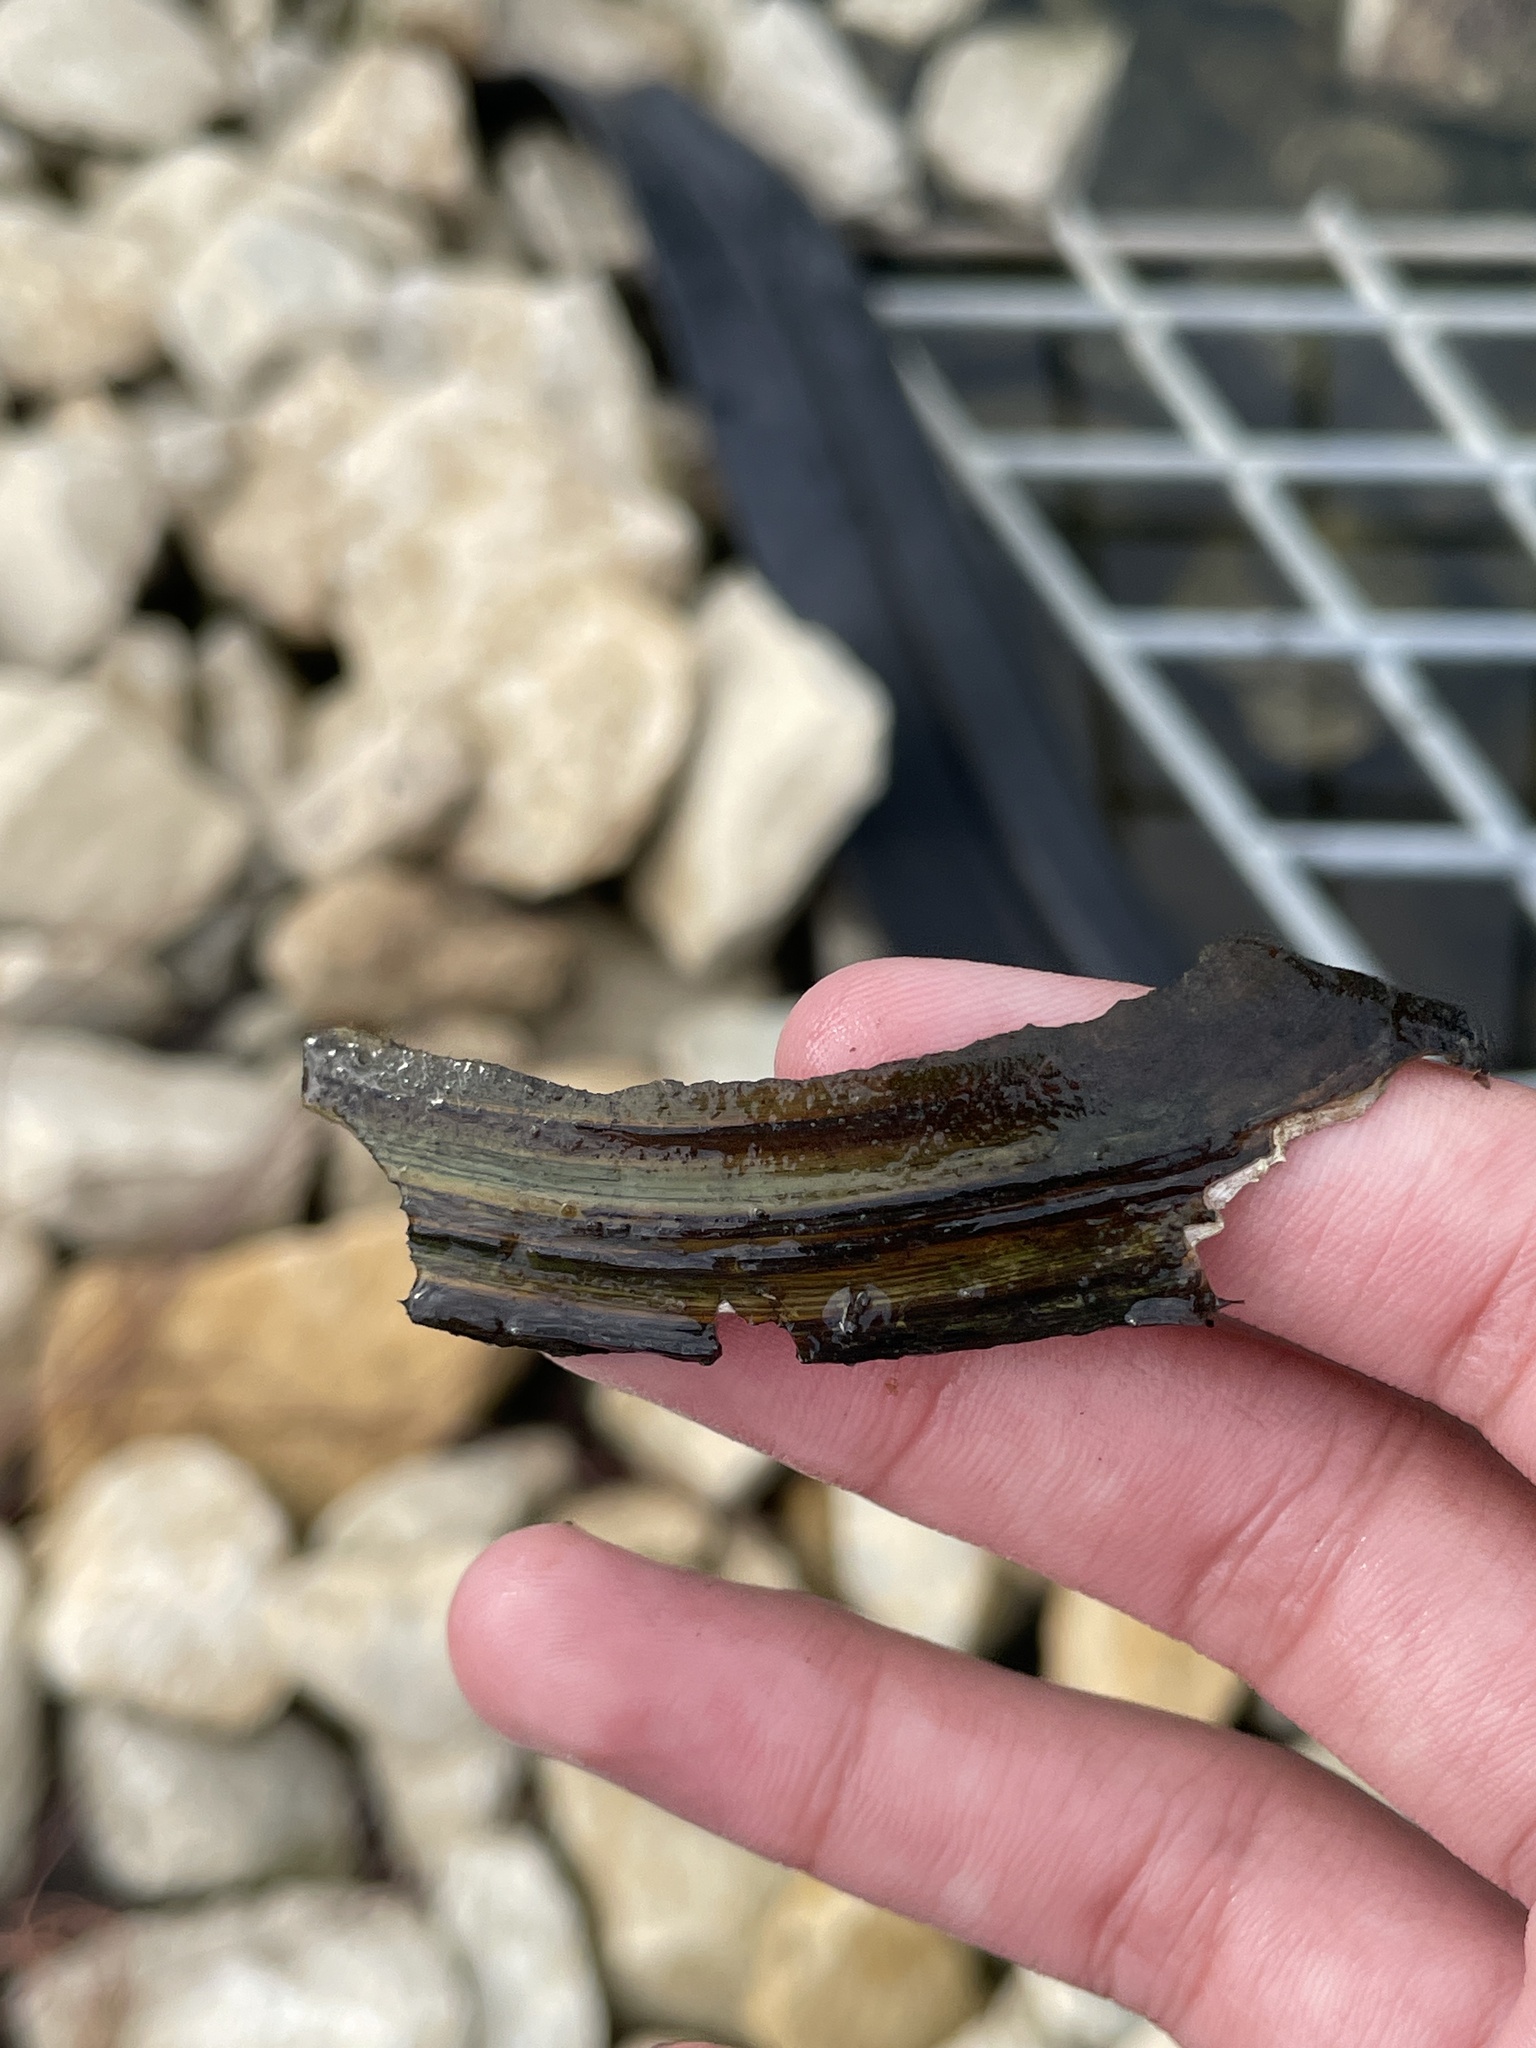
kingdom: Animalia
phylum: Mollusca
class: Bivalvia
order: Unionida
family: Unionidae
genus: Utterbackia
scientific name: Utterbackia imbecillis
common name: Paper pondshell
